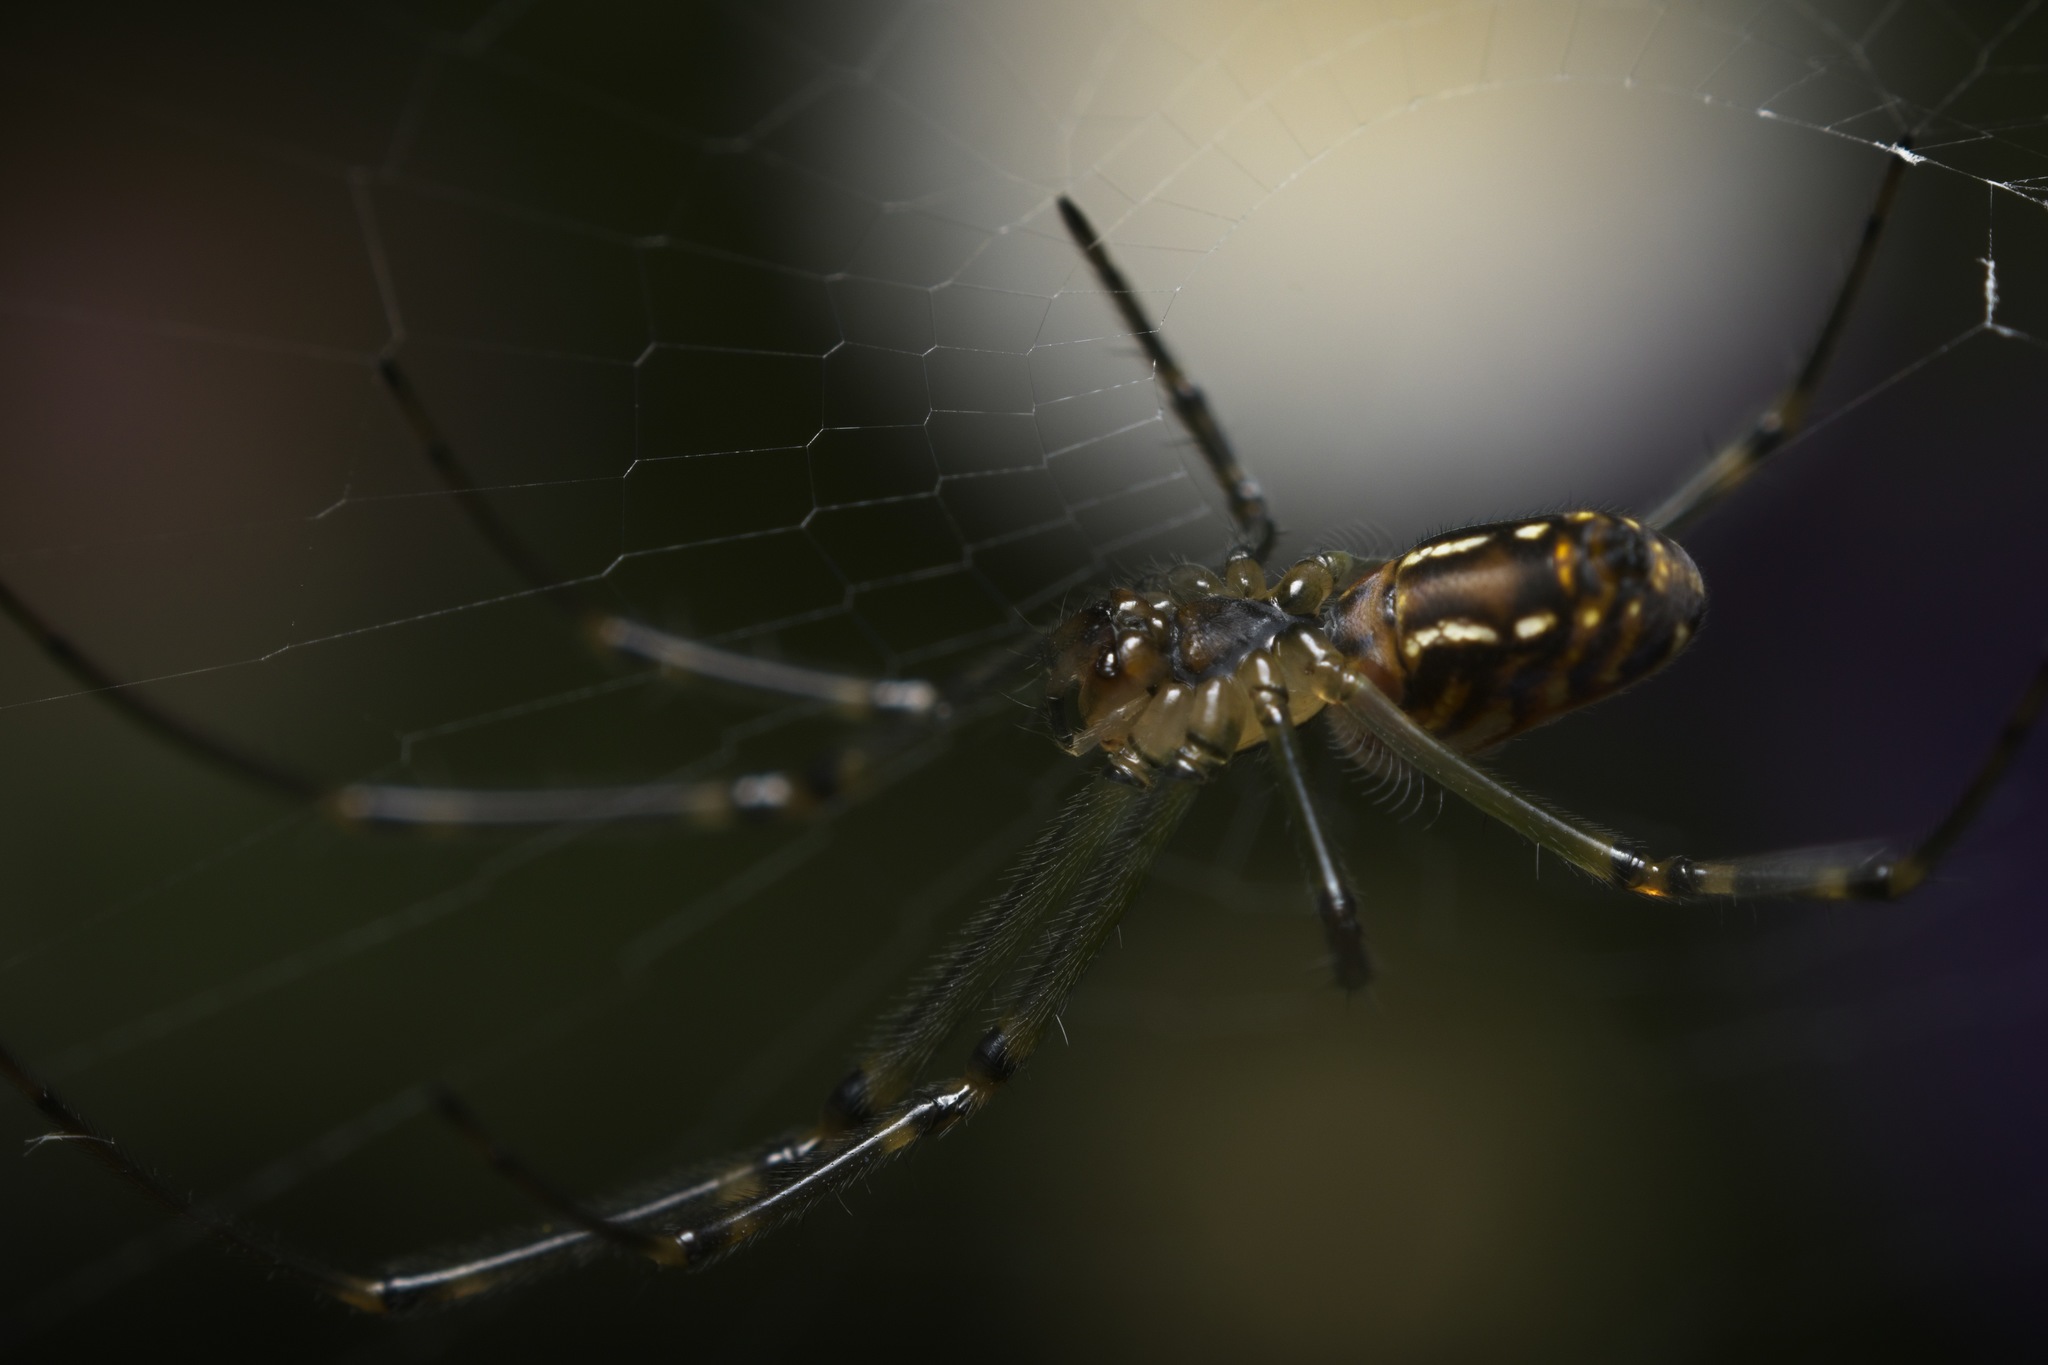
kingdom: Animalia
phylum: Arthropoda
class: Arachnida
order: Araneae
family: Tetragnathidae
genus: Leucauge
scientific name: Leucauge dromedaria
